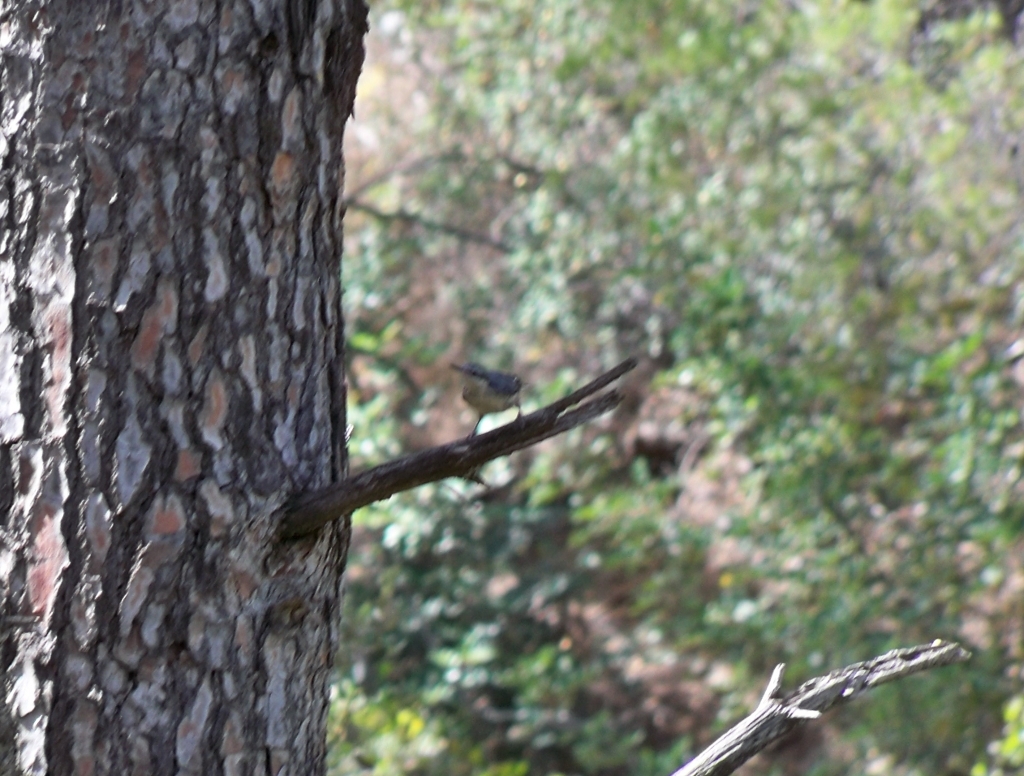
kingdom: Animalia
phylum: Chordata
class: Aves
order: Passeriformes
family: Sittidae
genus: Sitta
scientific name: Sitta europaea
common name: Eurasian nuthatch
